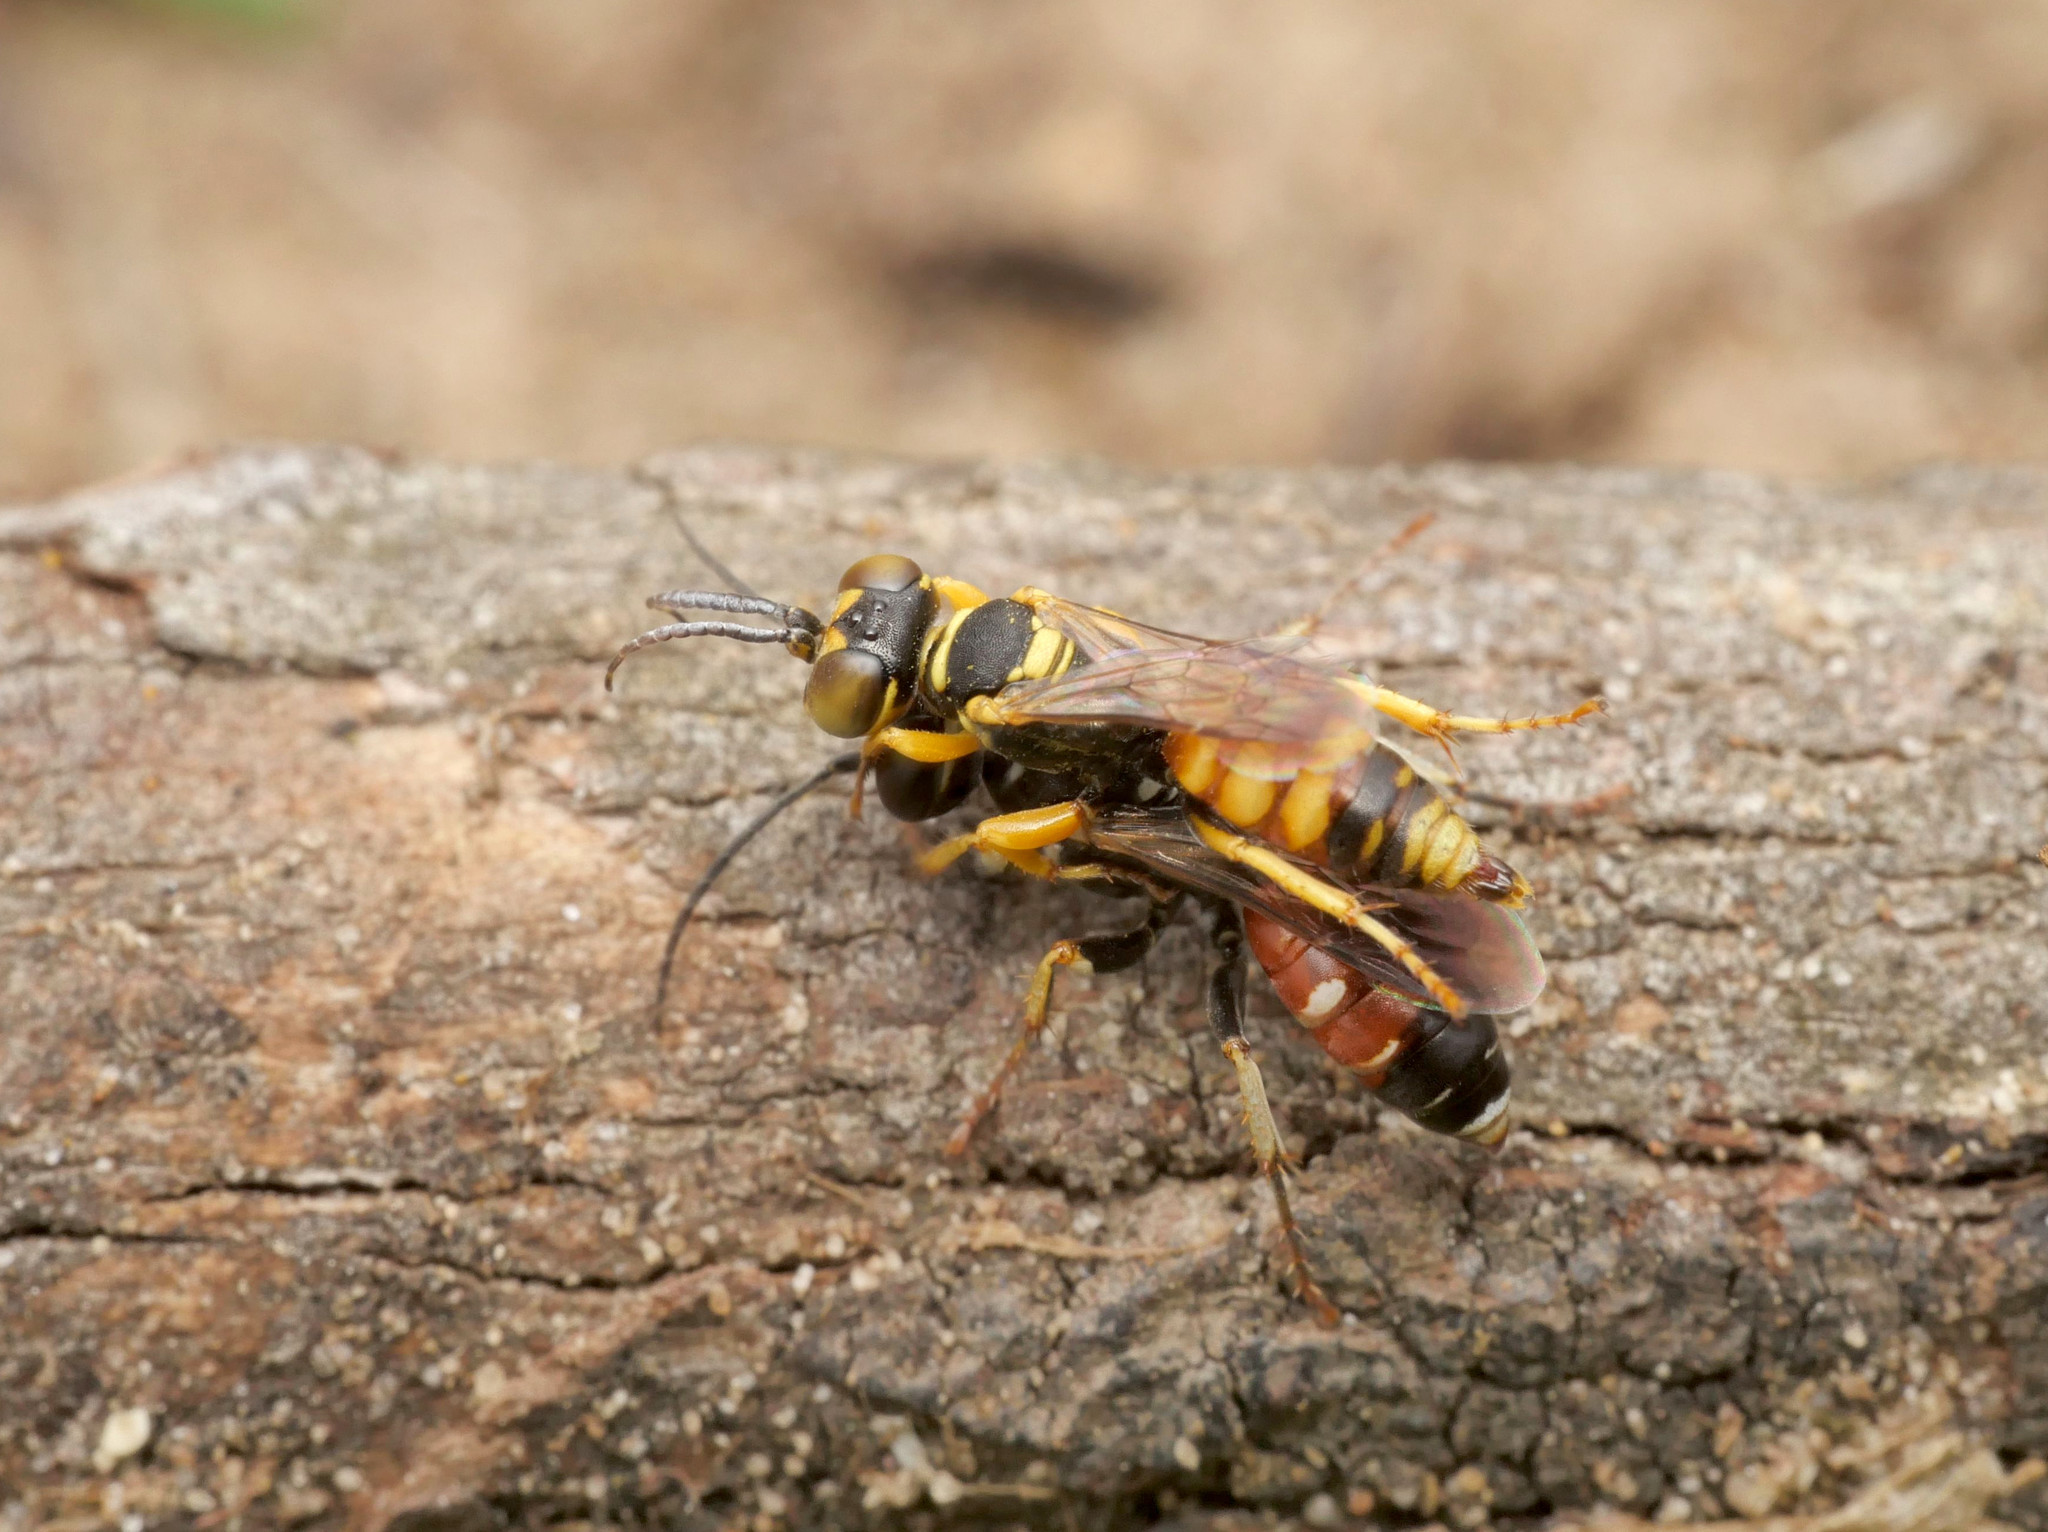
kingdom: Animalia
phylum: Arthropoda
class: Insecta
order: Hymenoptera
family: Crabronidae
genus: Dinetus
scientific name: Dinetus pictus
